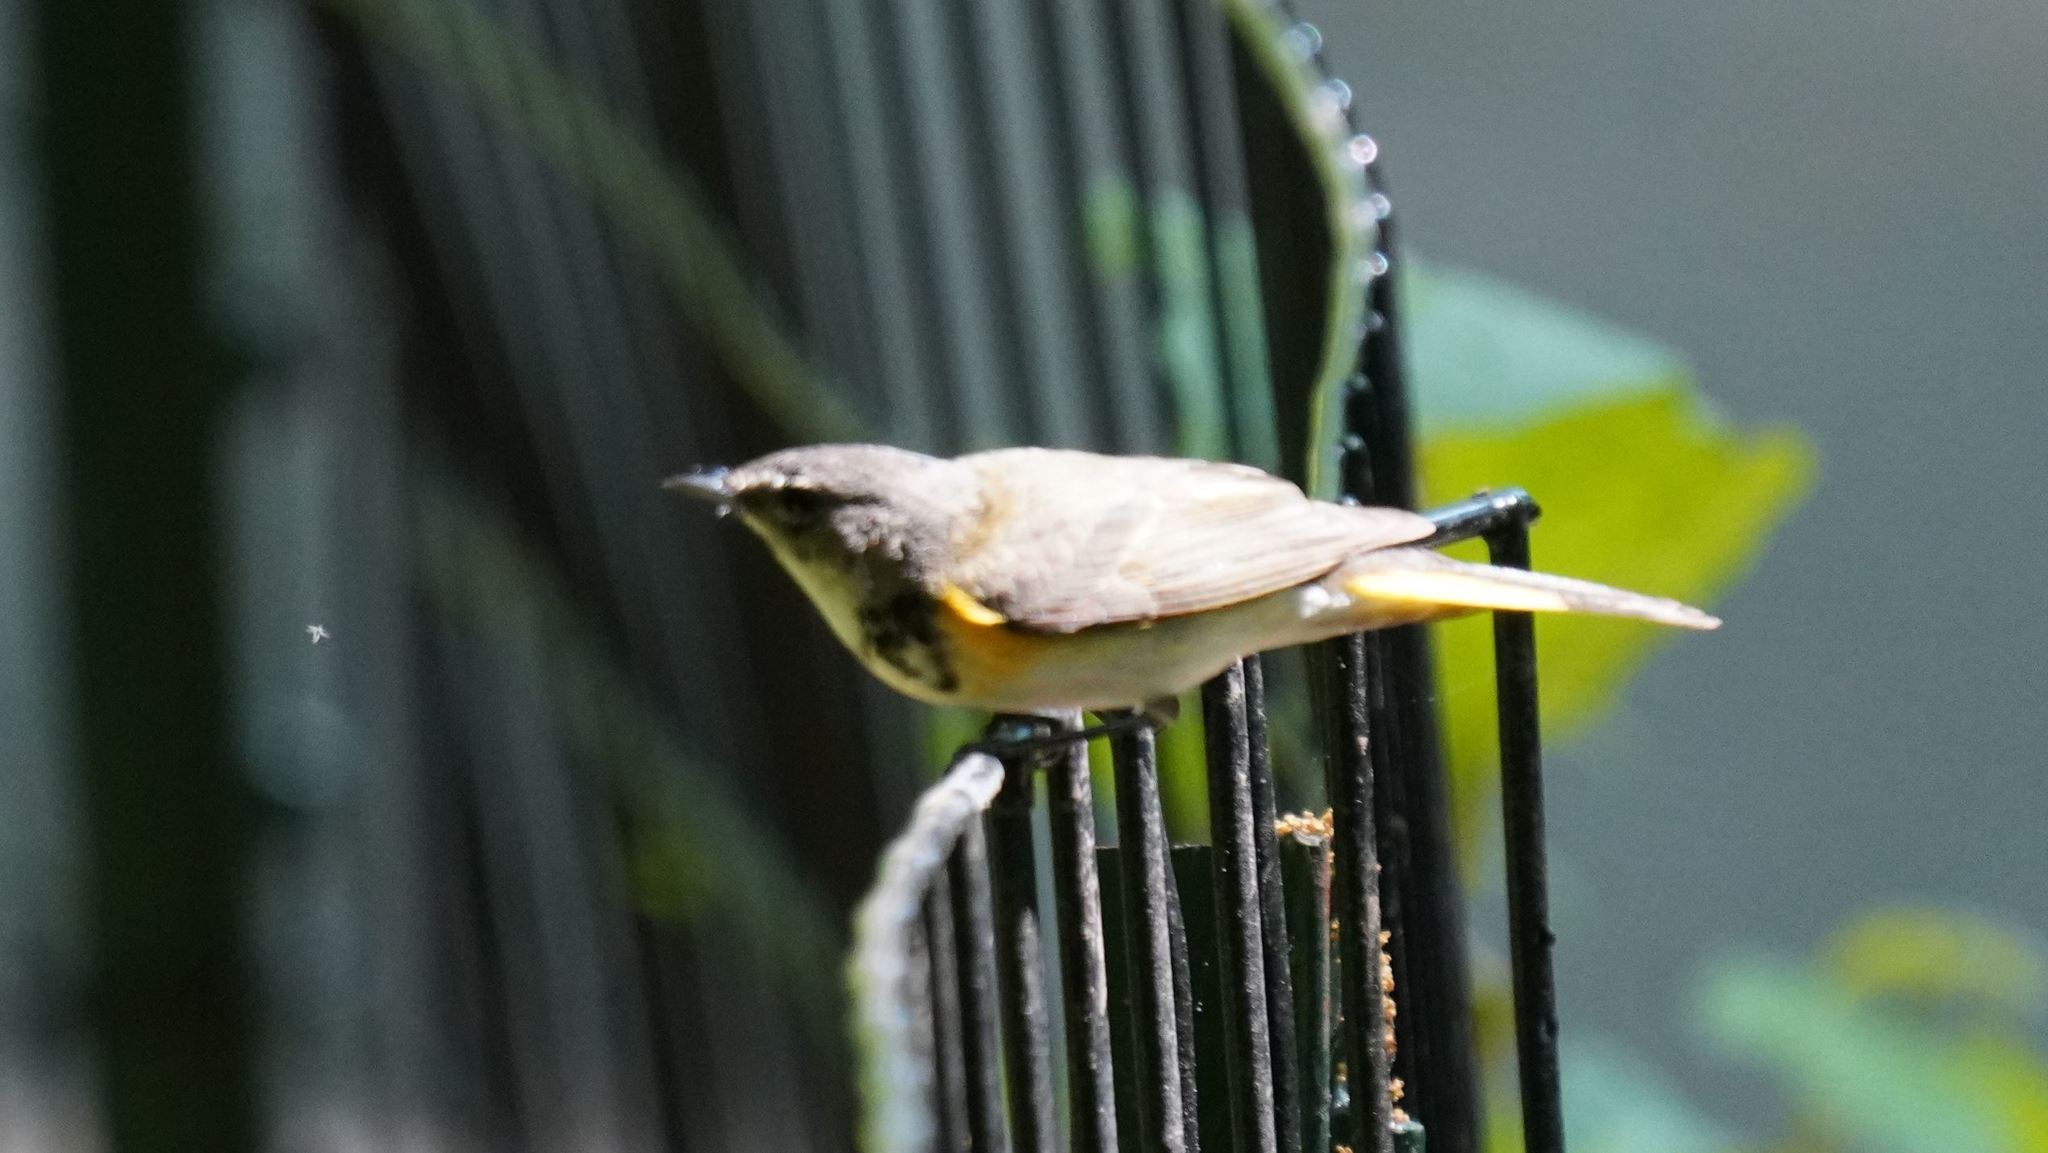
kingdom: Animalia
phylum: Chordata
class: Aves
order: Passeriformes
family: Parulidae
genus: Setophaga
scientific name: Setophaga ruticilla
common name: American redstart
